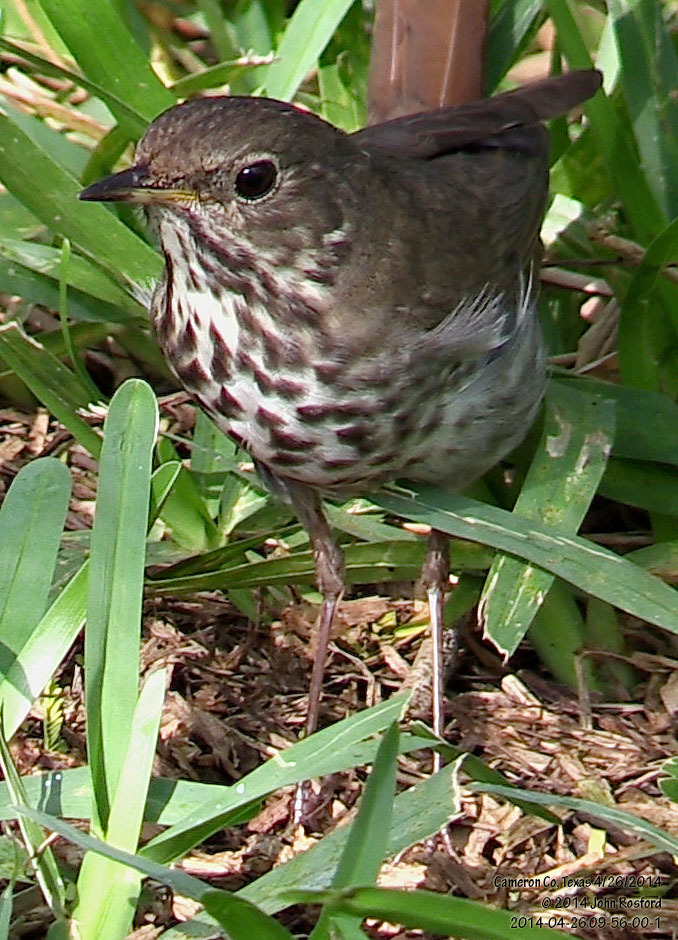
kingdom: Animalia
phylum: Chordata
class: Aves
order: Passeriformes
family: Turdidae
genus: Catharus
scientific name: Catharus guttatus
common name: Hermit thrush
